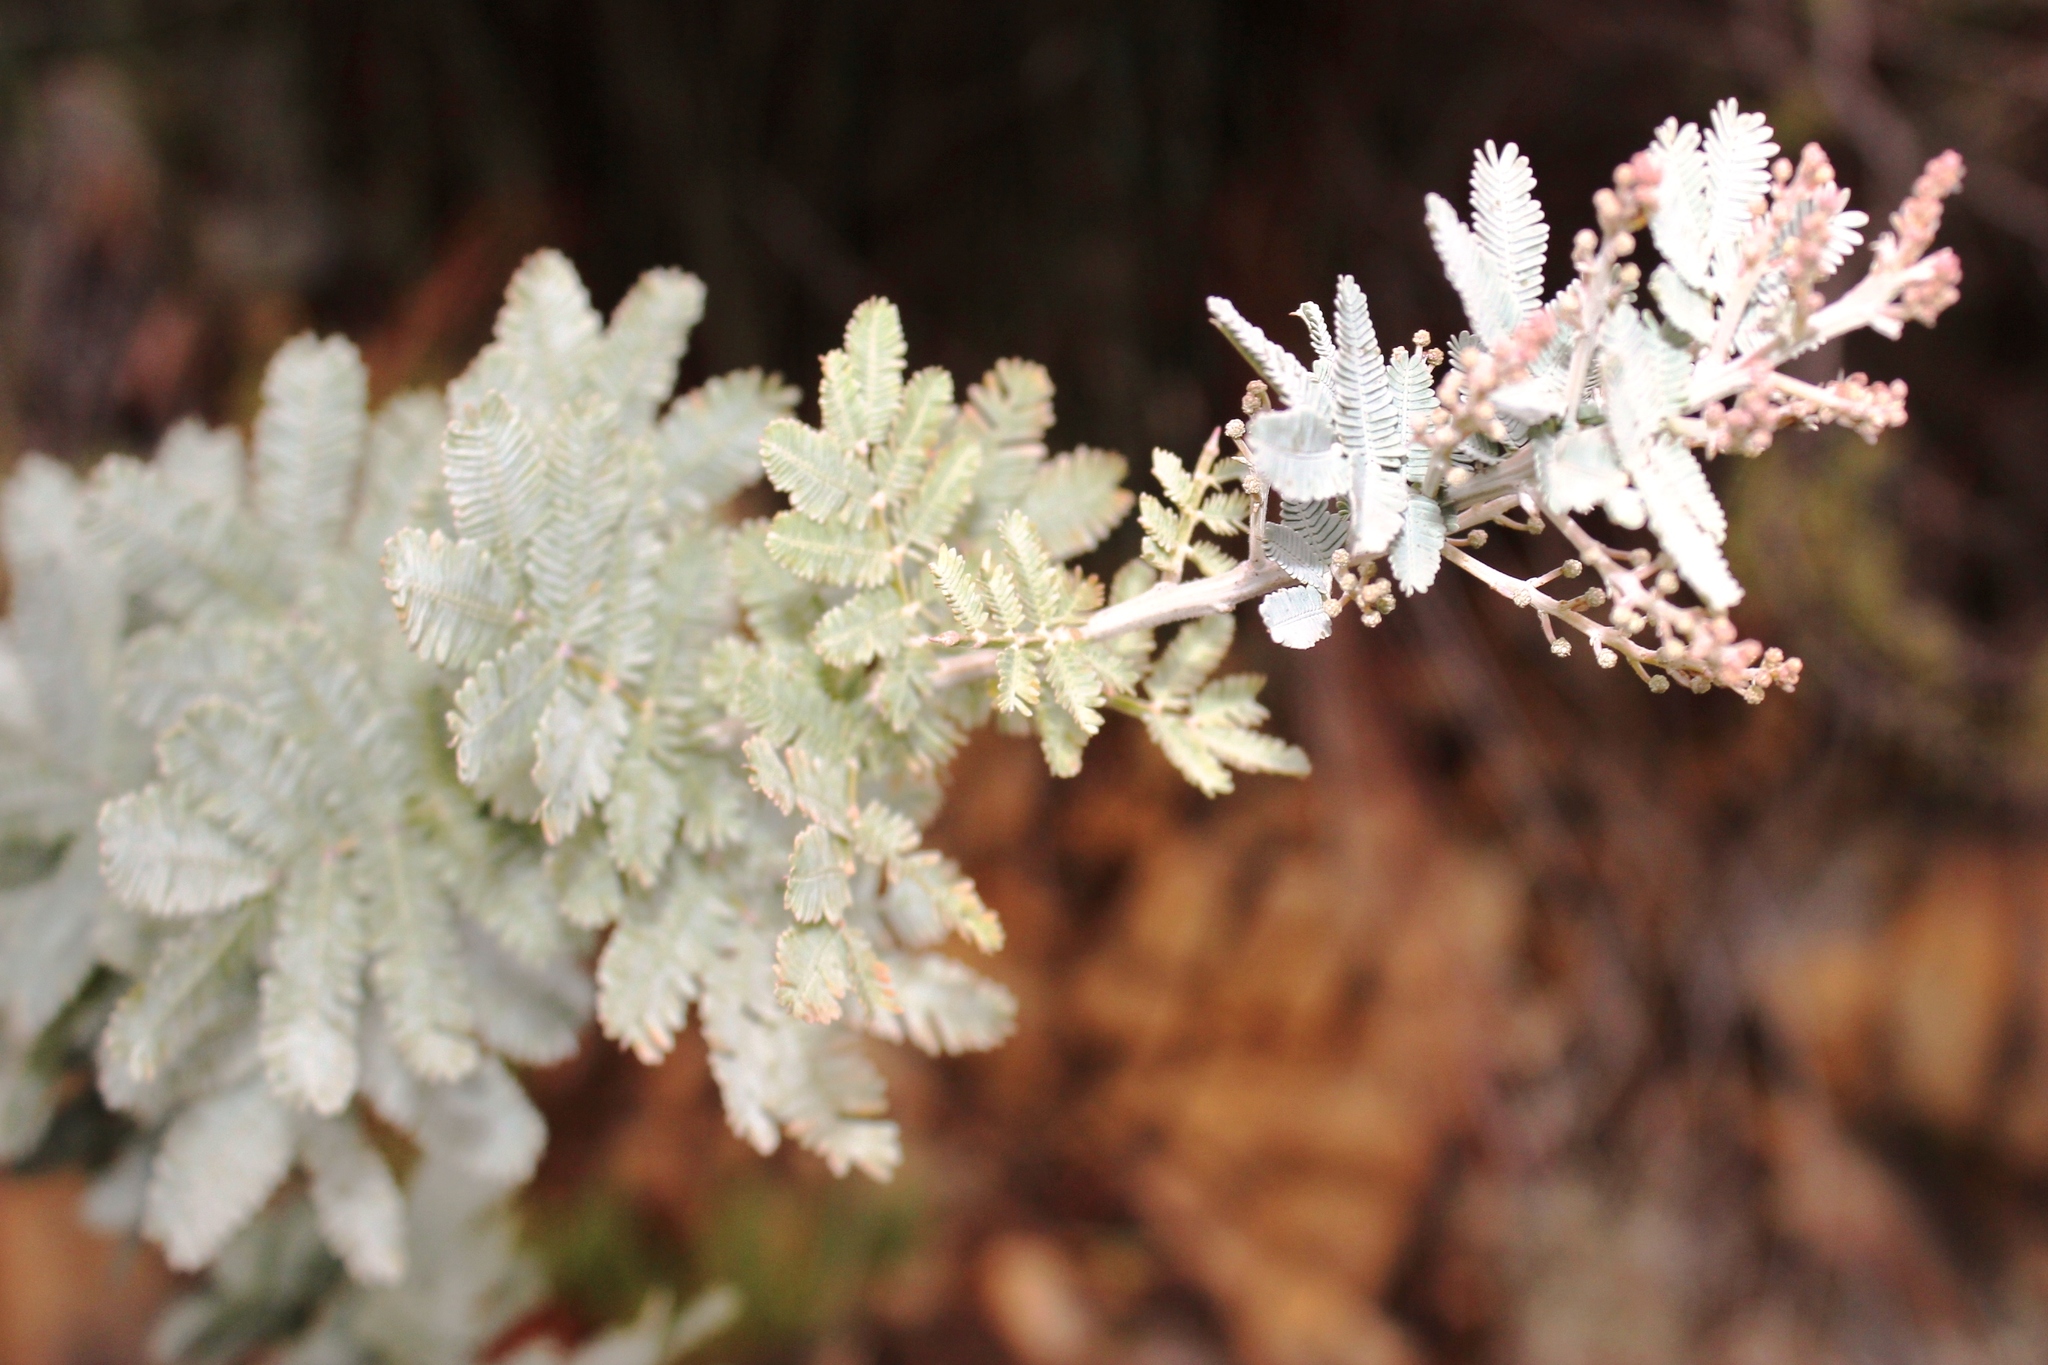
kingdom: Plantae
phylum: Tracheophyta
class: Magnoliopsida
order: Fabales
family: Fabaceae
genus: Acacia
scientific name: Acacia baileyana
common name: Cootamundra wattle
